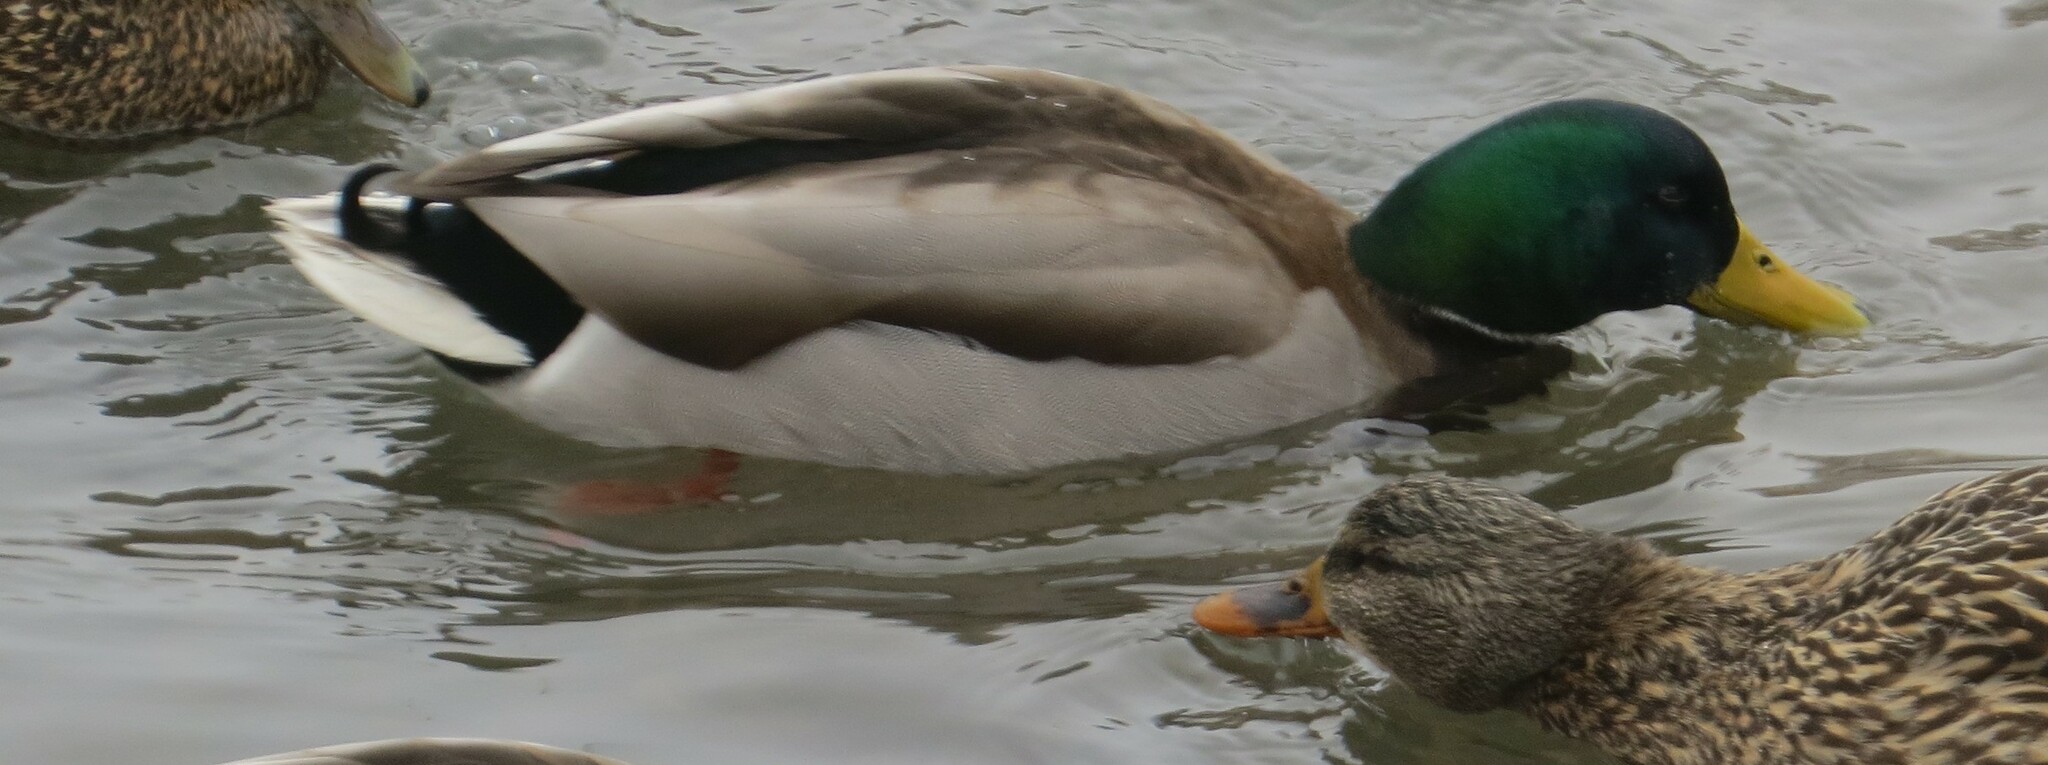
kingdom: Animalia
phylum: Chordata
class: Aves
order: Anseriformes
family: Anatidae
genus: Anas
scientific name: Anas platyrhynchos
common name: Mallard
